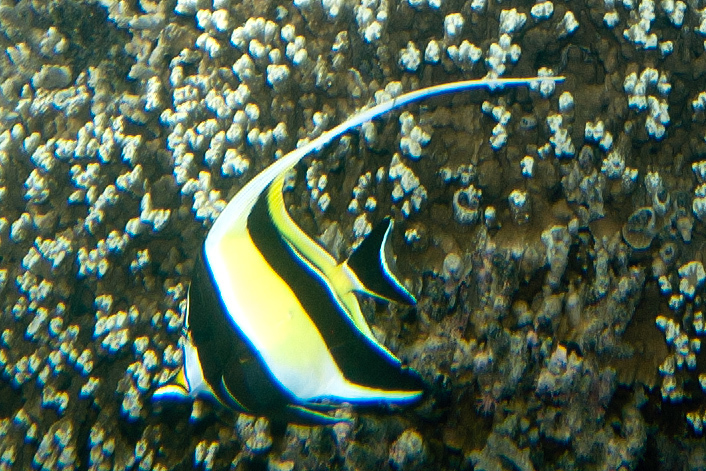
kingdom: Animalia
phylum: Chordata
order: Perciformes
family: Zanclidae
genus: Zanclus
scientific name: Zanclus cornutus
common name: Moorish idol
